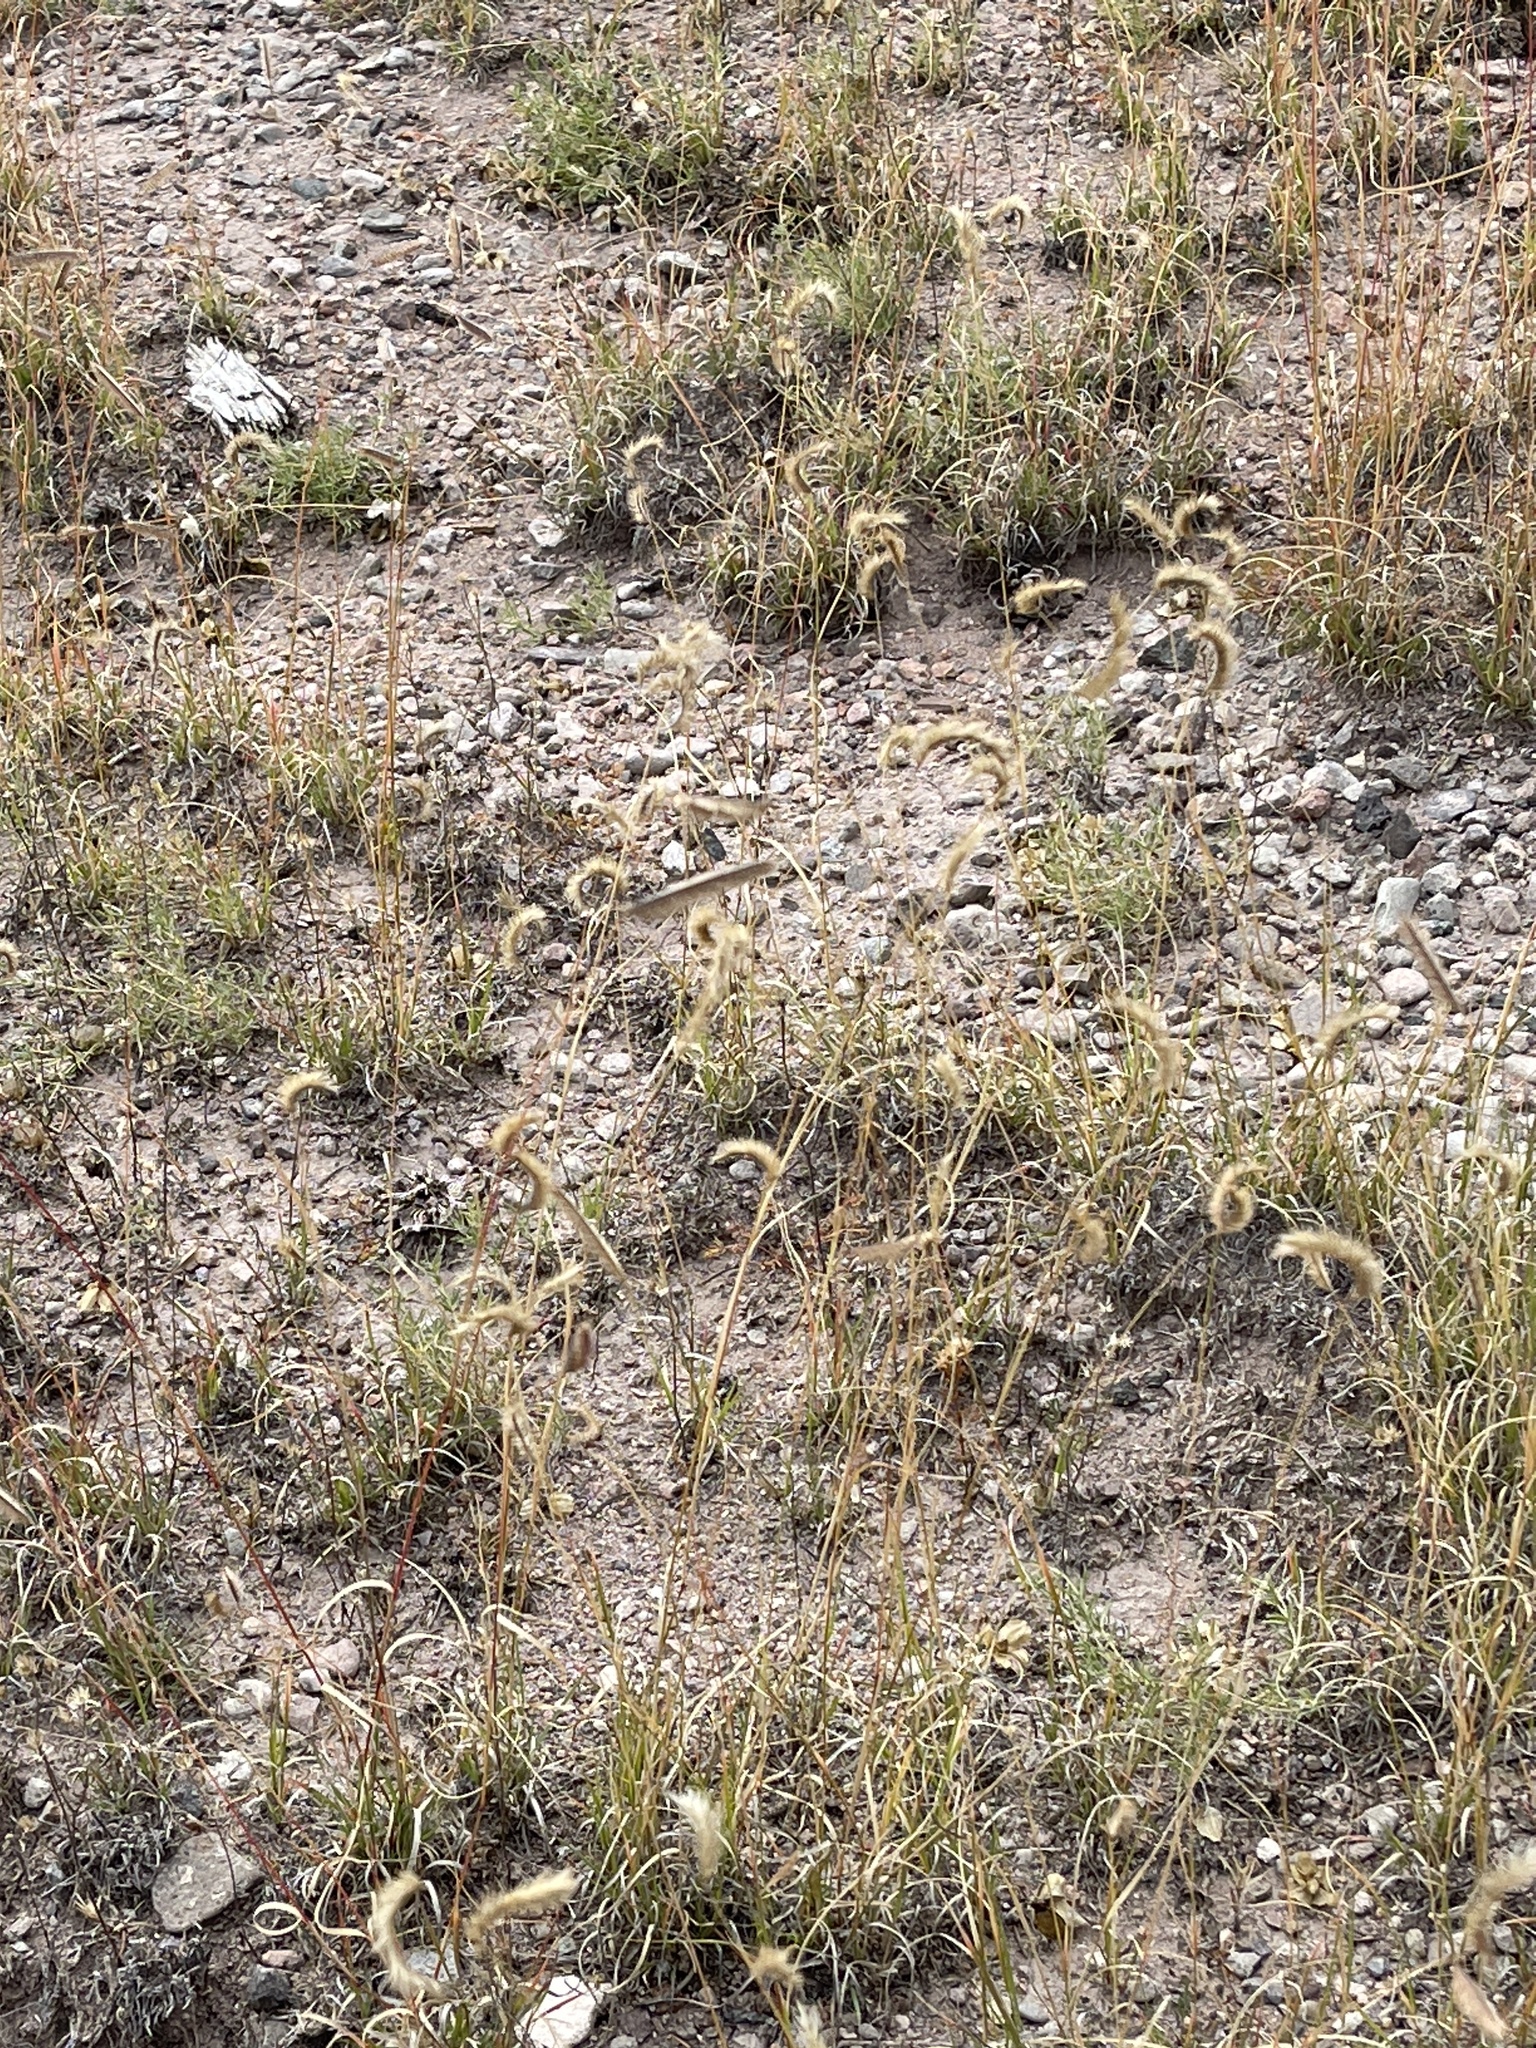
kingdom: Plantae
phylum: Tracheophyta
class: Liliopsida
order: Poales
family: Poaceae
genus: Bouteloua
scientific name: Bouteloua gracilis
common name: Blue grama
